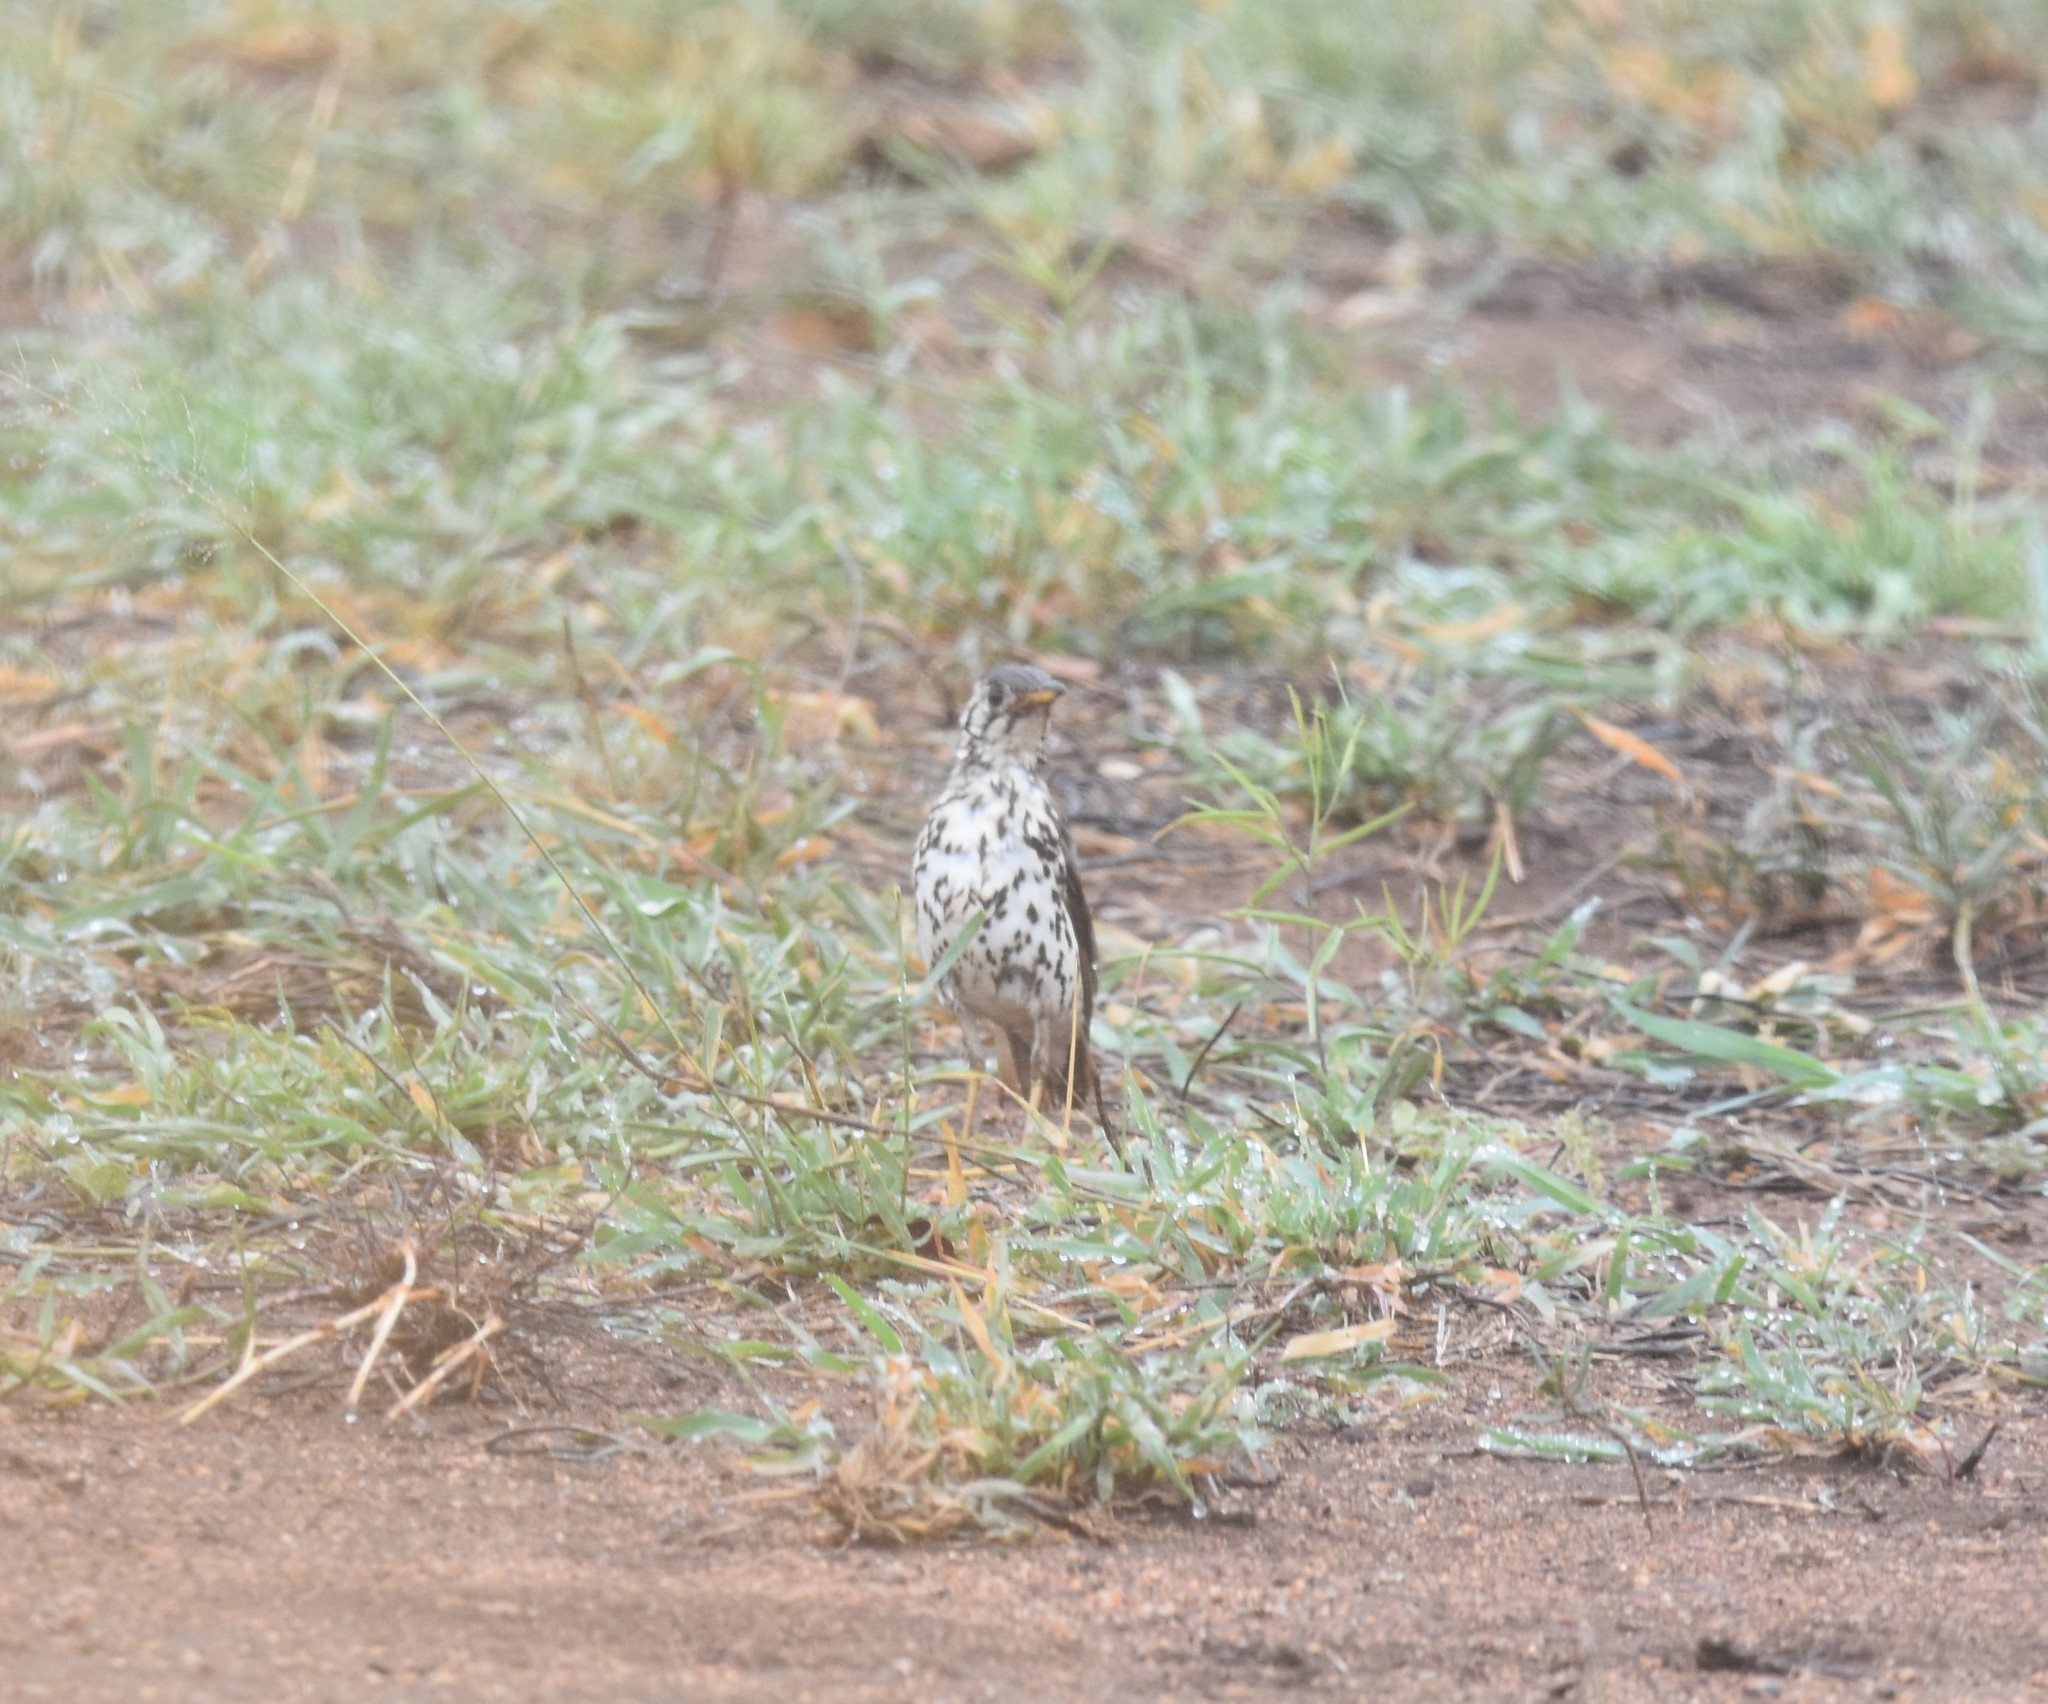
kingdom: Animalia
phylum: Chordata
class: Aves
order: Passeriformes
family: Turdidae
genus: Psophocichla
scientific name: Psophocichla litsitsirupa
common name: Groundscraper thrush
